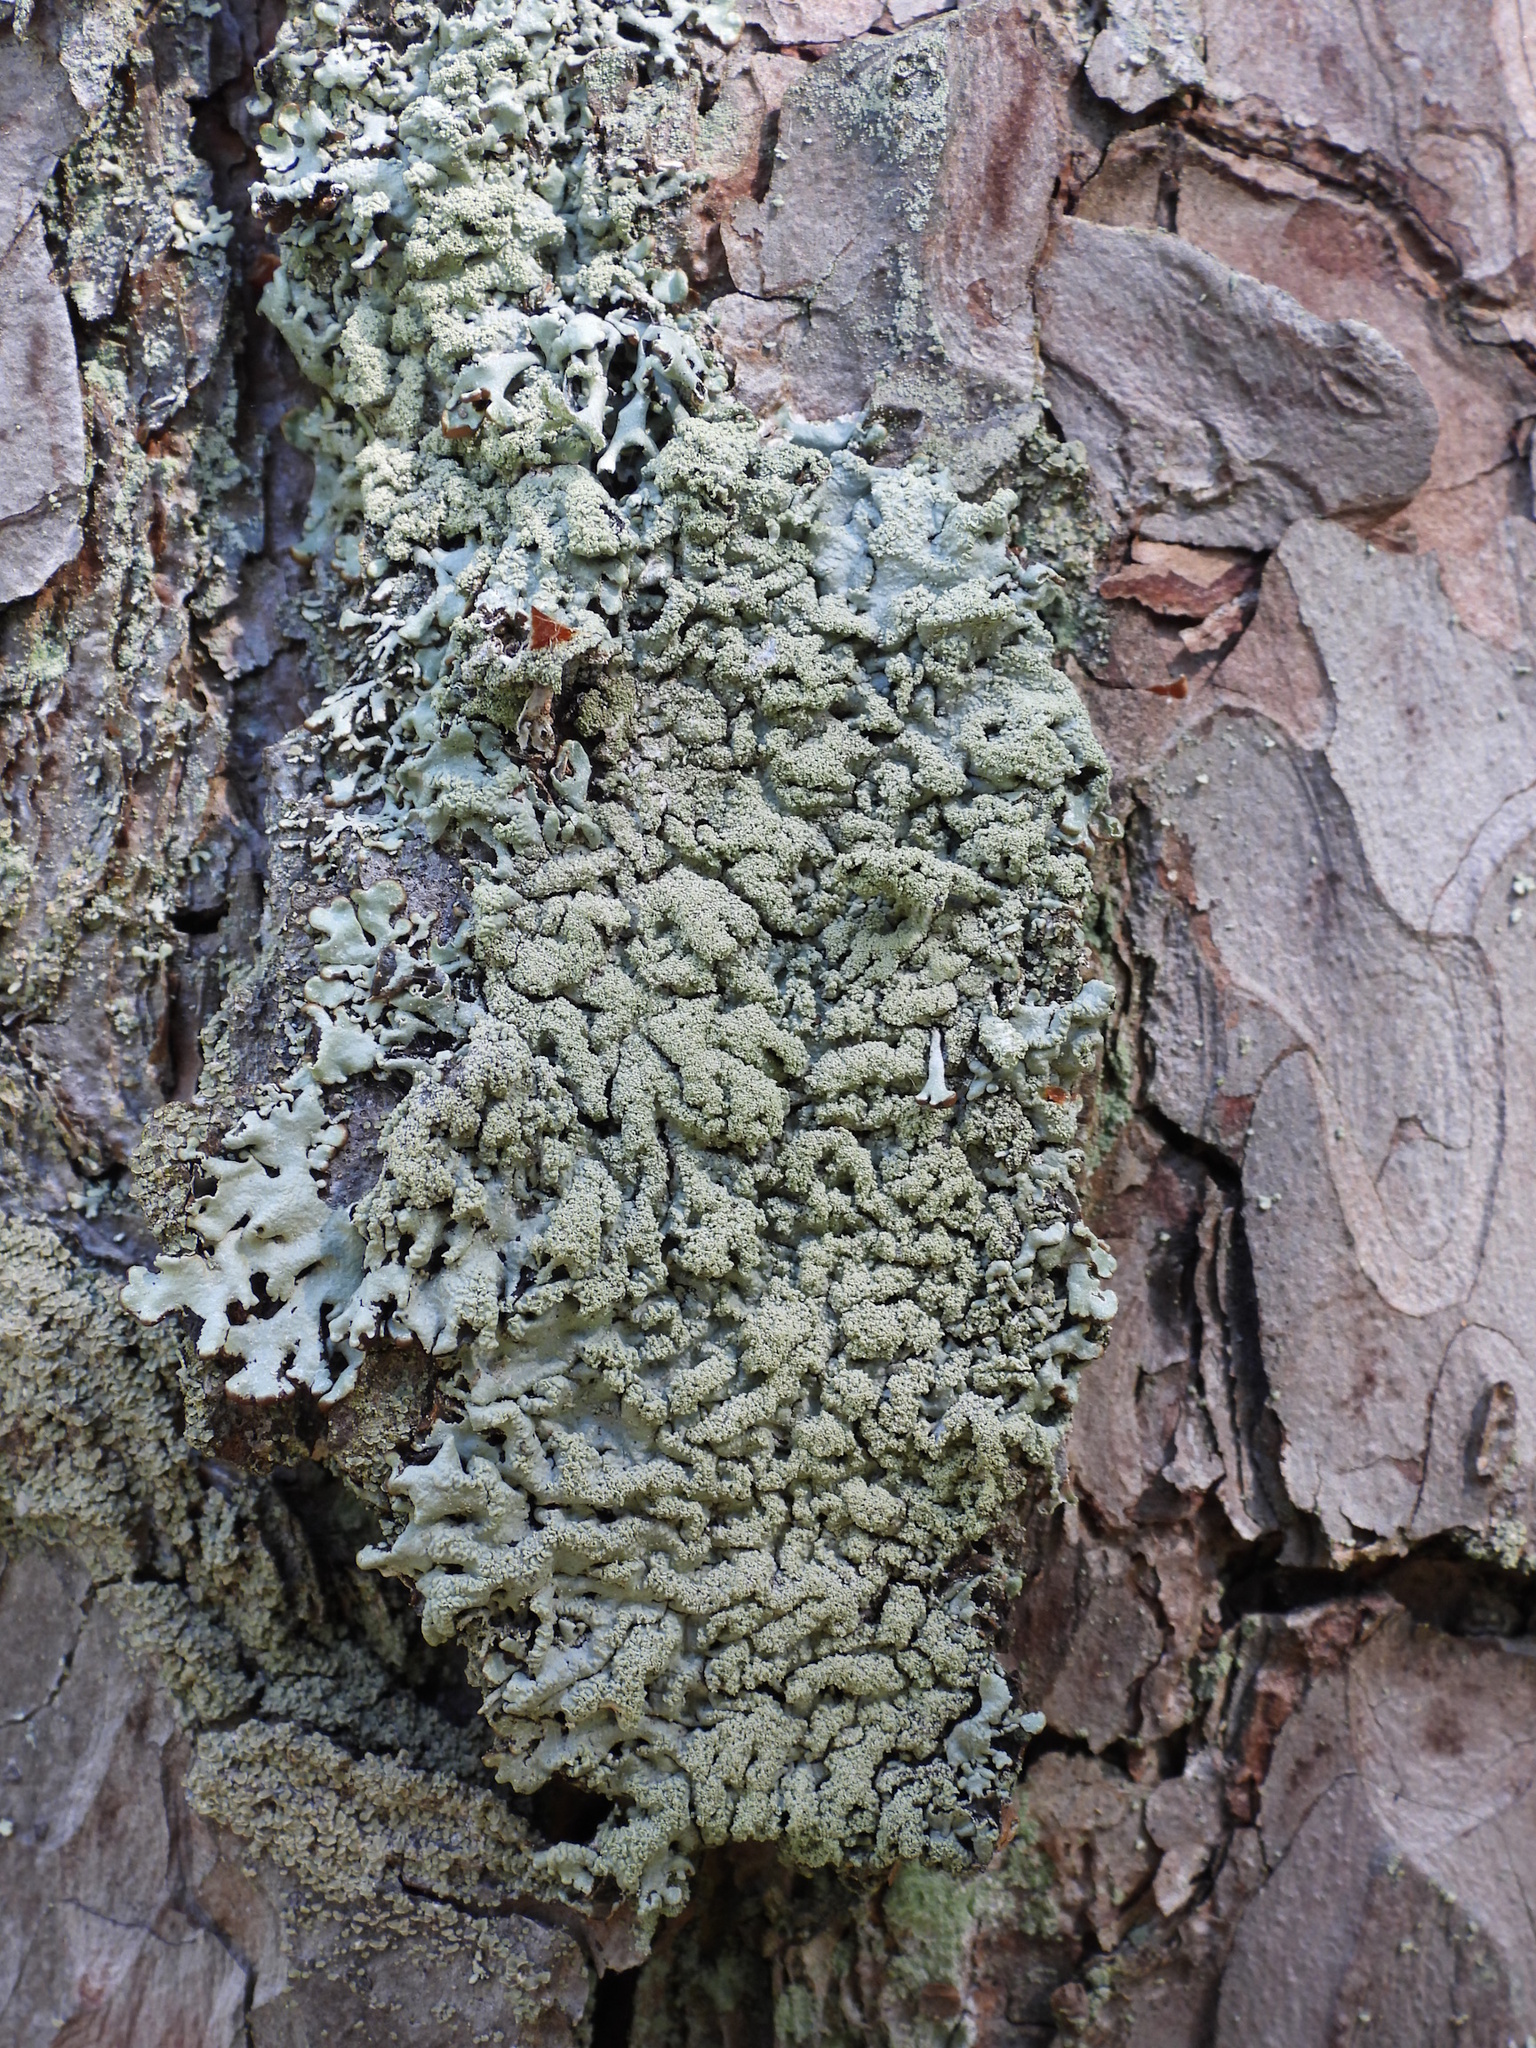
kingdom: Fungi
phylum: Ascomycota
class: Lecanoromycetes
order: Lecanorales
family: Parmeliaceae
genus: Hypogymnia
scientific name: Hypogymnia farinacea
